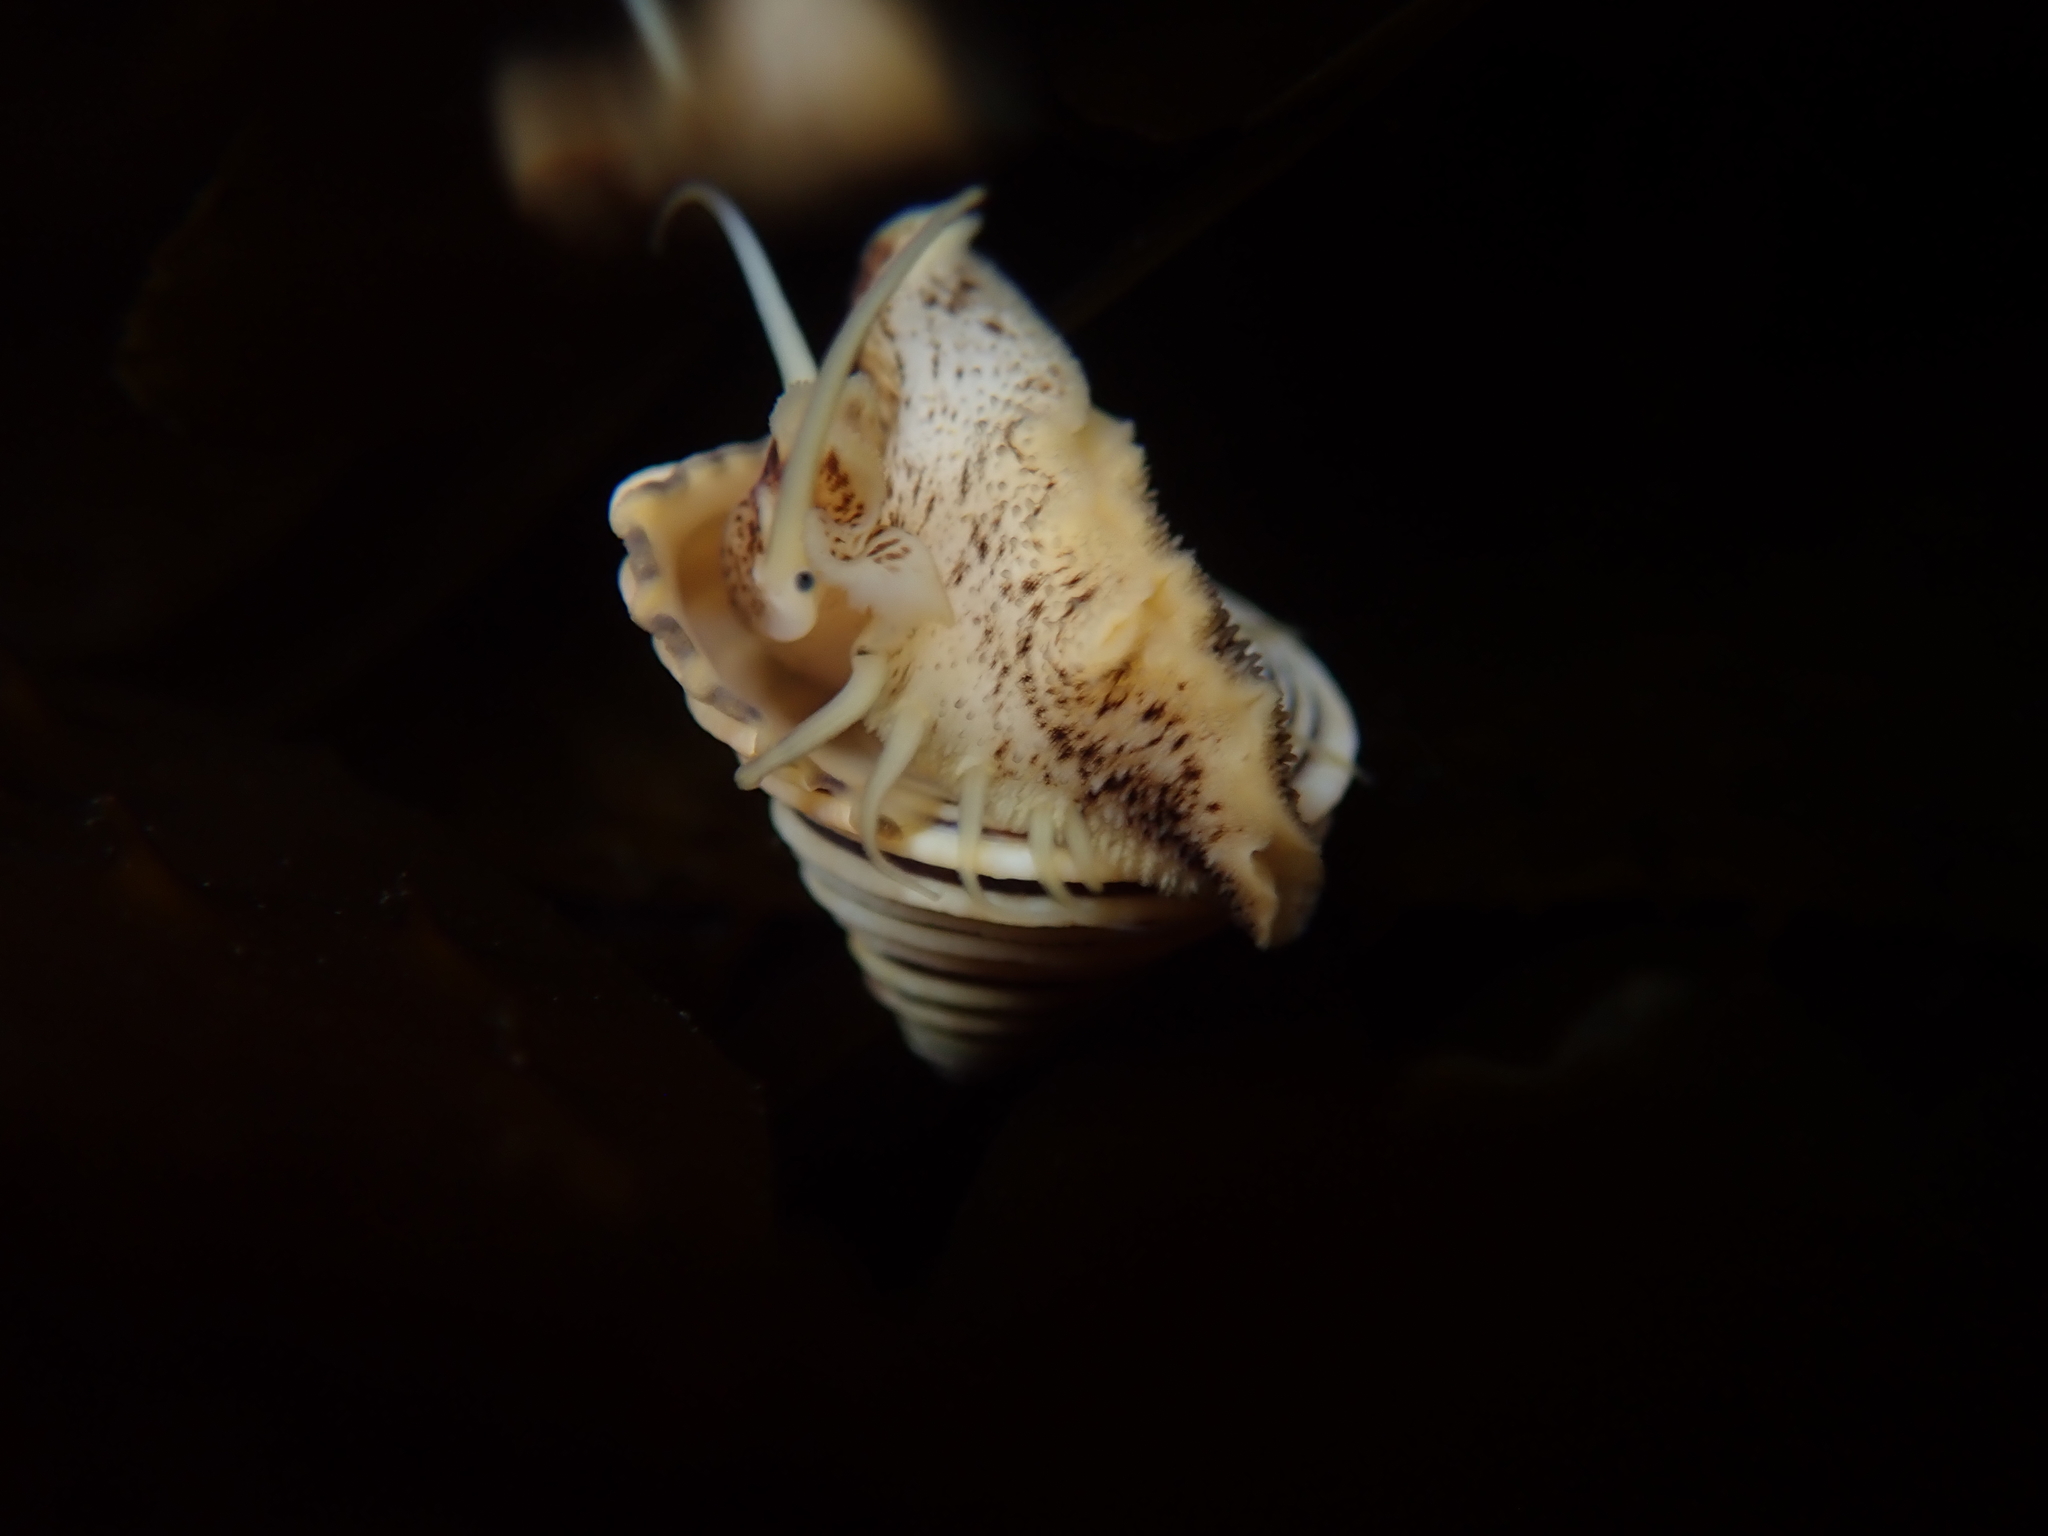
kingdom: Animalia
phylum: Mollusca
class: Gastropoda
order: Trochida
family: Calliostomatidae
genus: Calliostoma
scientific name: Calliostoma canaliculatum
